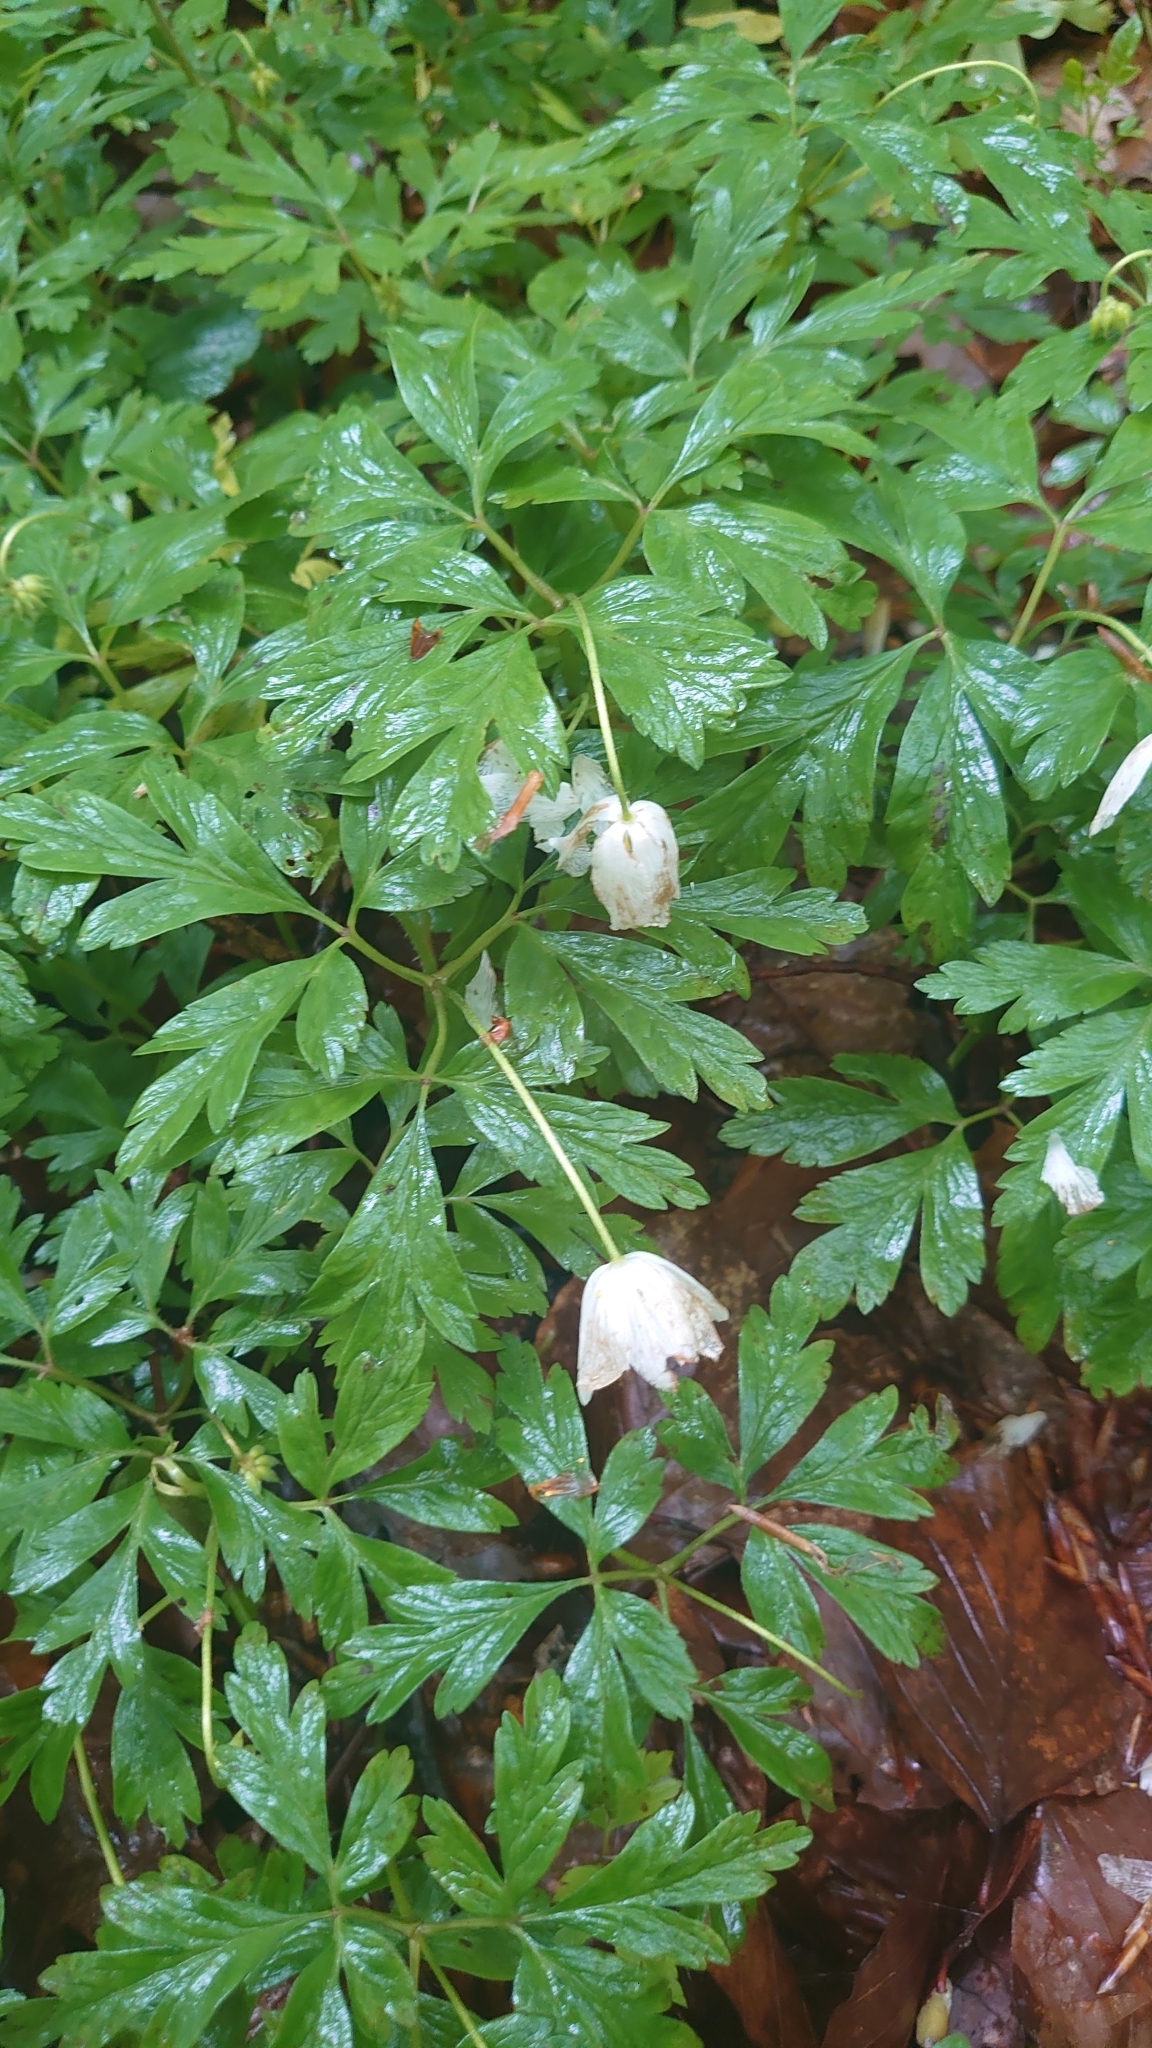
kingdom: Plantae
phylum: Tracheophyta
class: Magnoliopsida
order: Ranunculales
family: Ranunculaceae
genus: Anemone
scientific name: Anemone nemorosa
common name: Wood anemone
